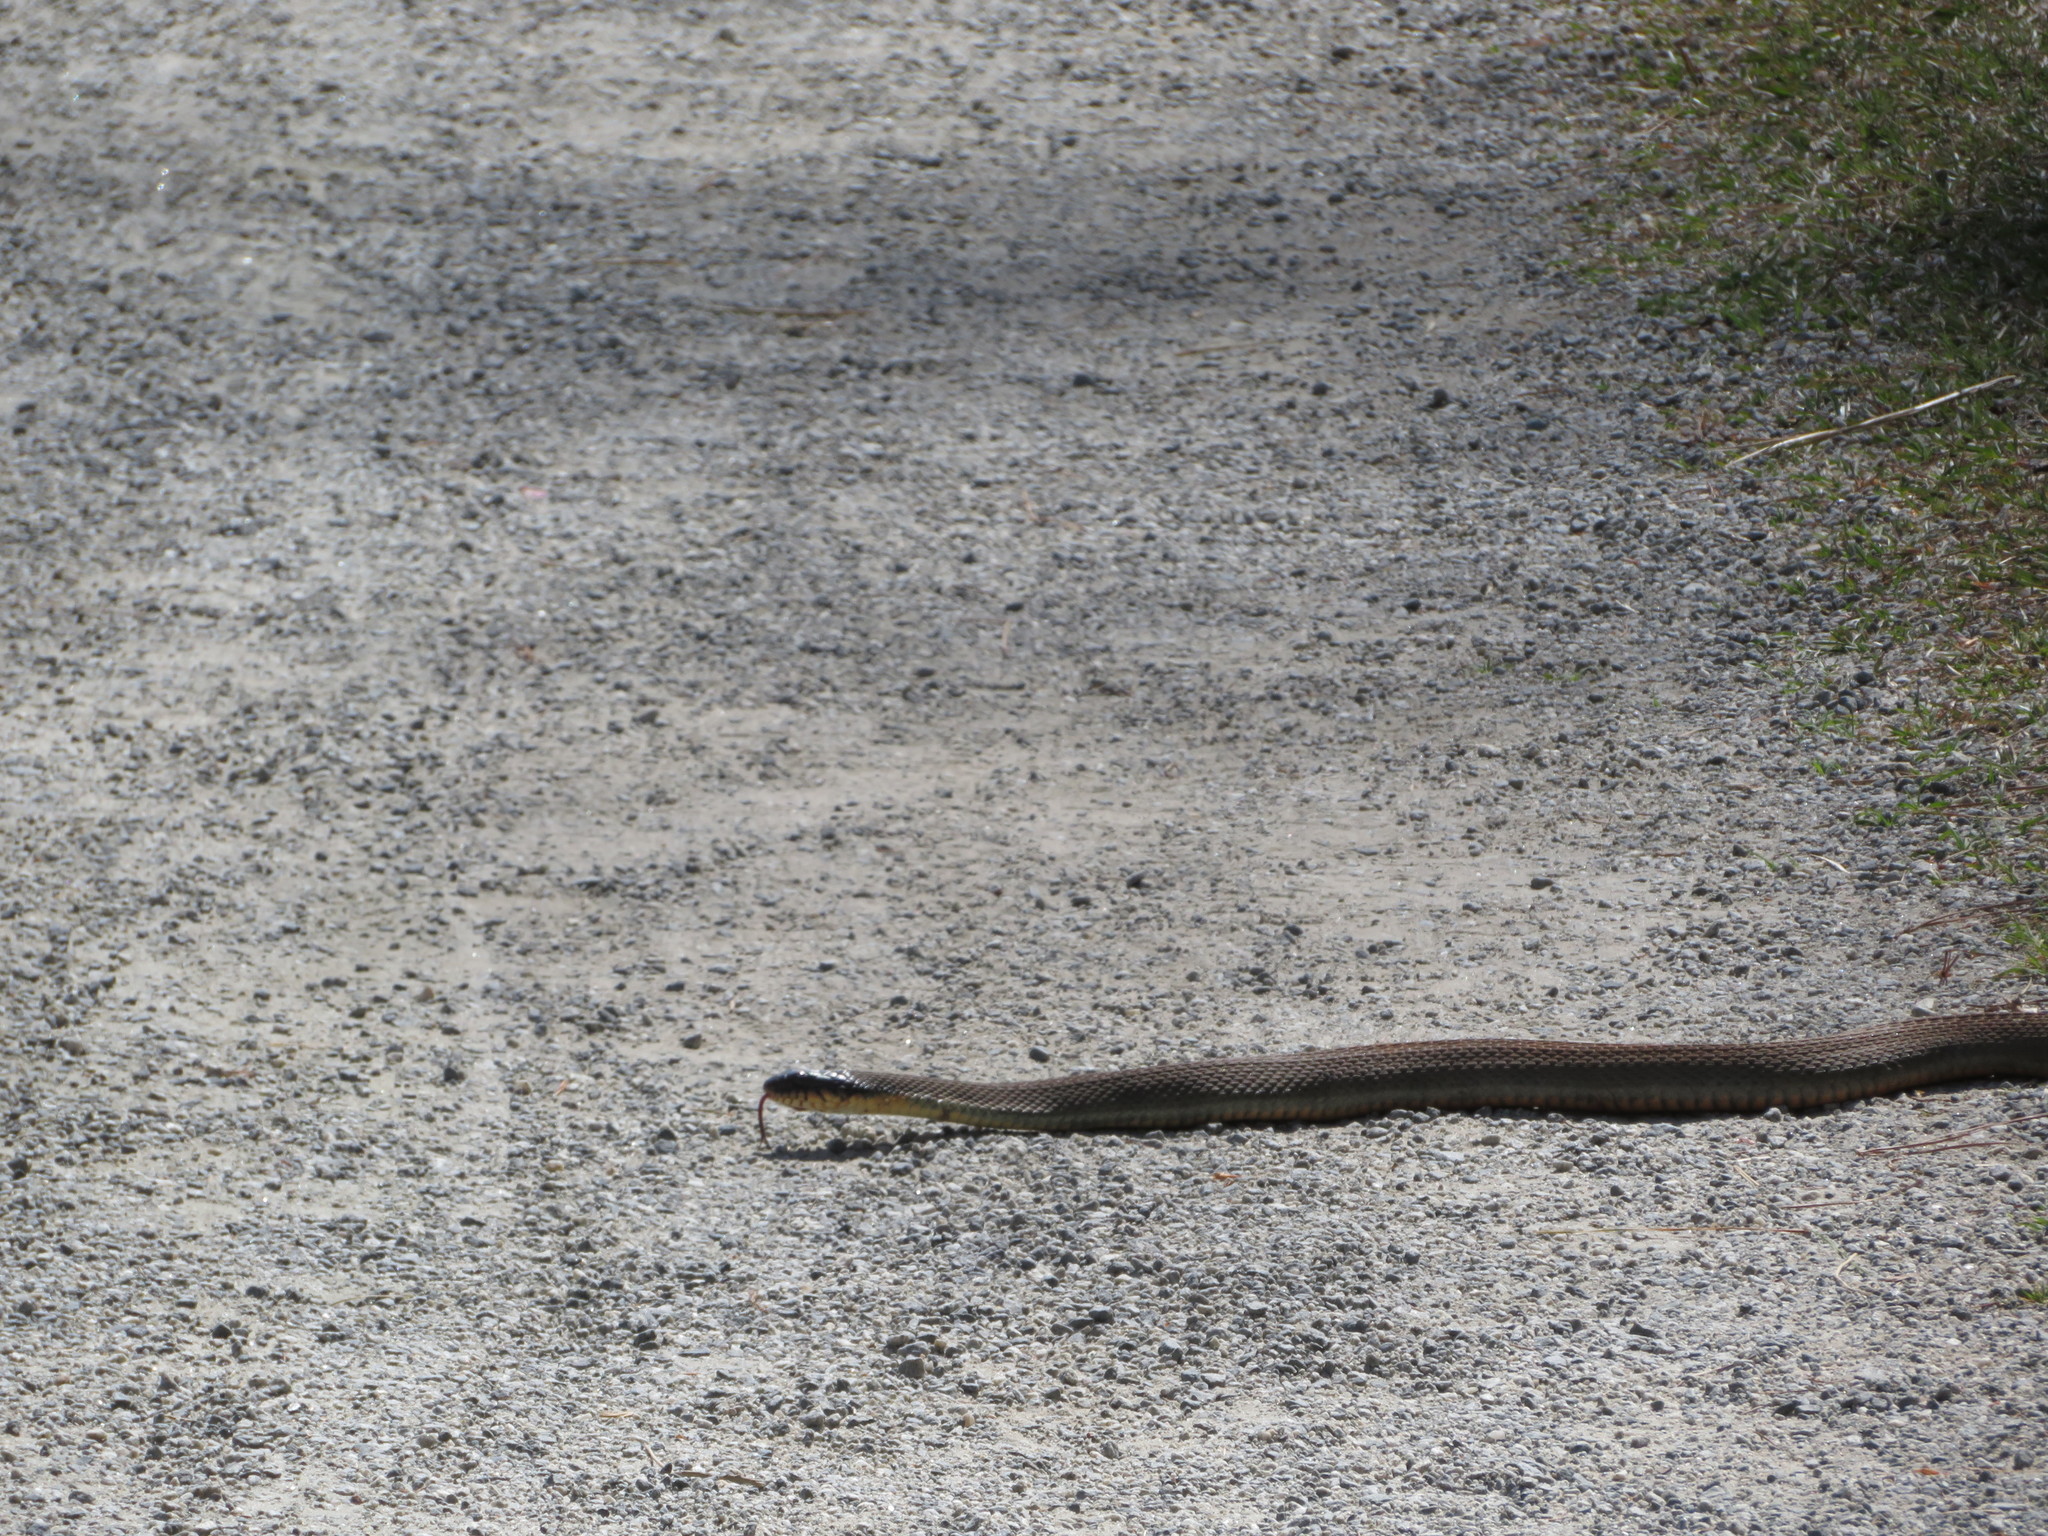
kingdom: Animalia
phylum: Chordata
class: Squamata
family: Colubridae
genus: Nerodia
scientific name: Nerodia erythrogaster
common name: Plainbelly water snake
